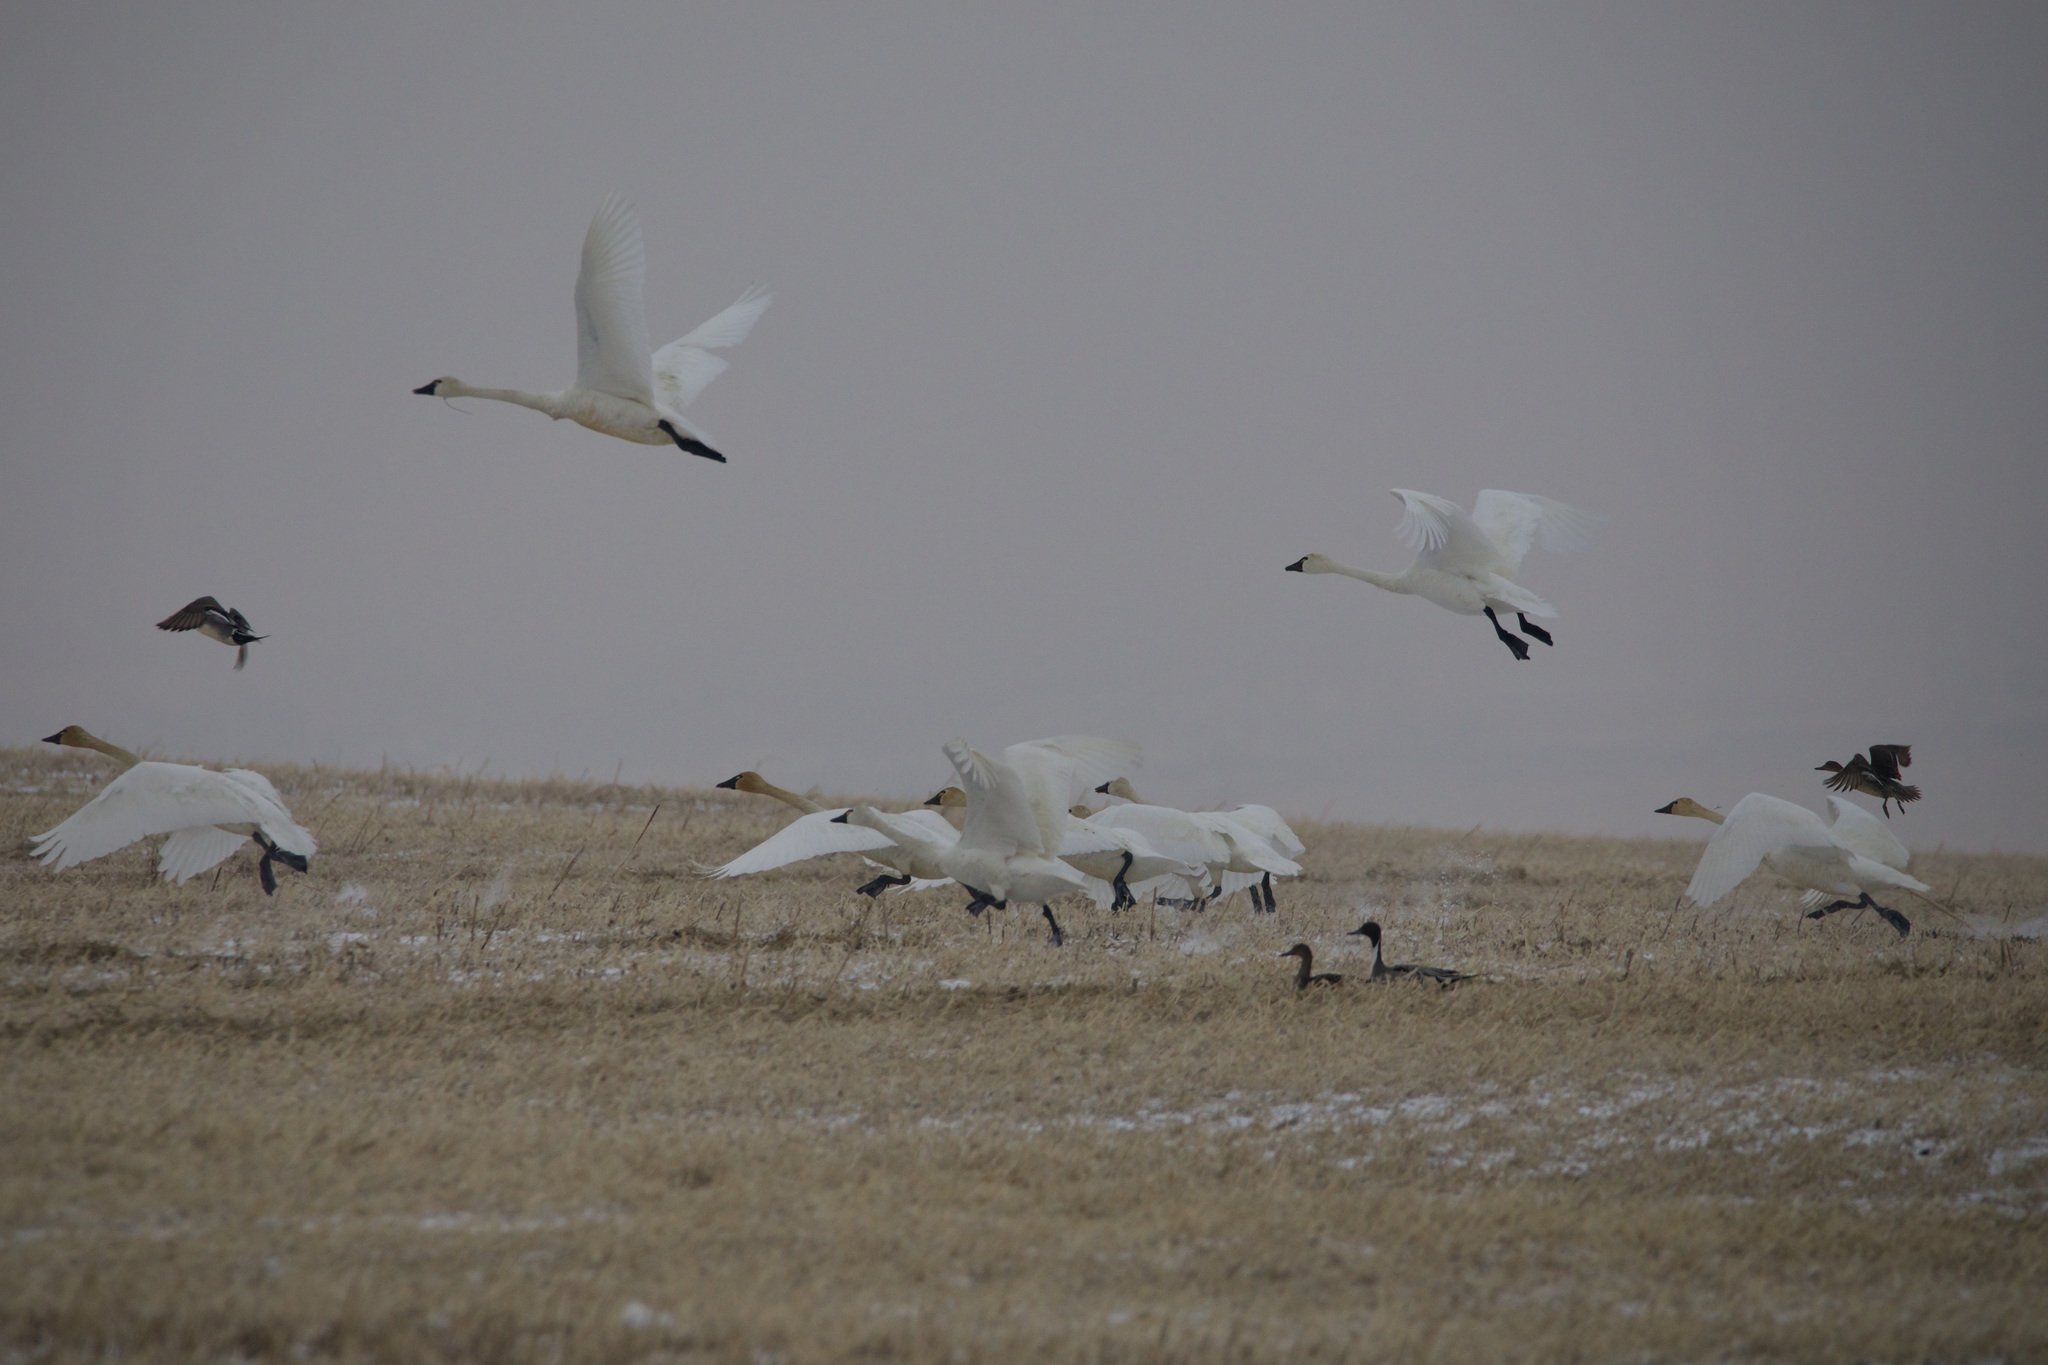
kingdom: Animalia
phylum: Chordata
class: Aves
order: Anseriformes
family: Anatidae
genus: Cygnus
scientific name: Cygnus columbianus
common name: Tundra swan
